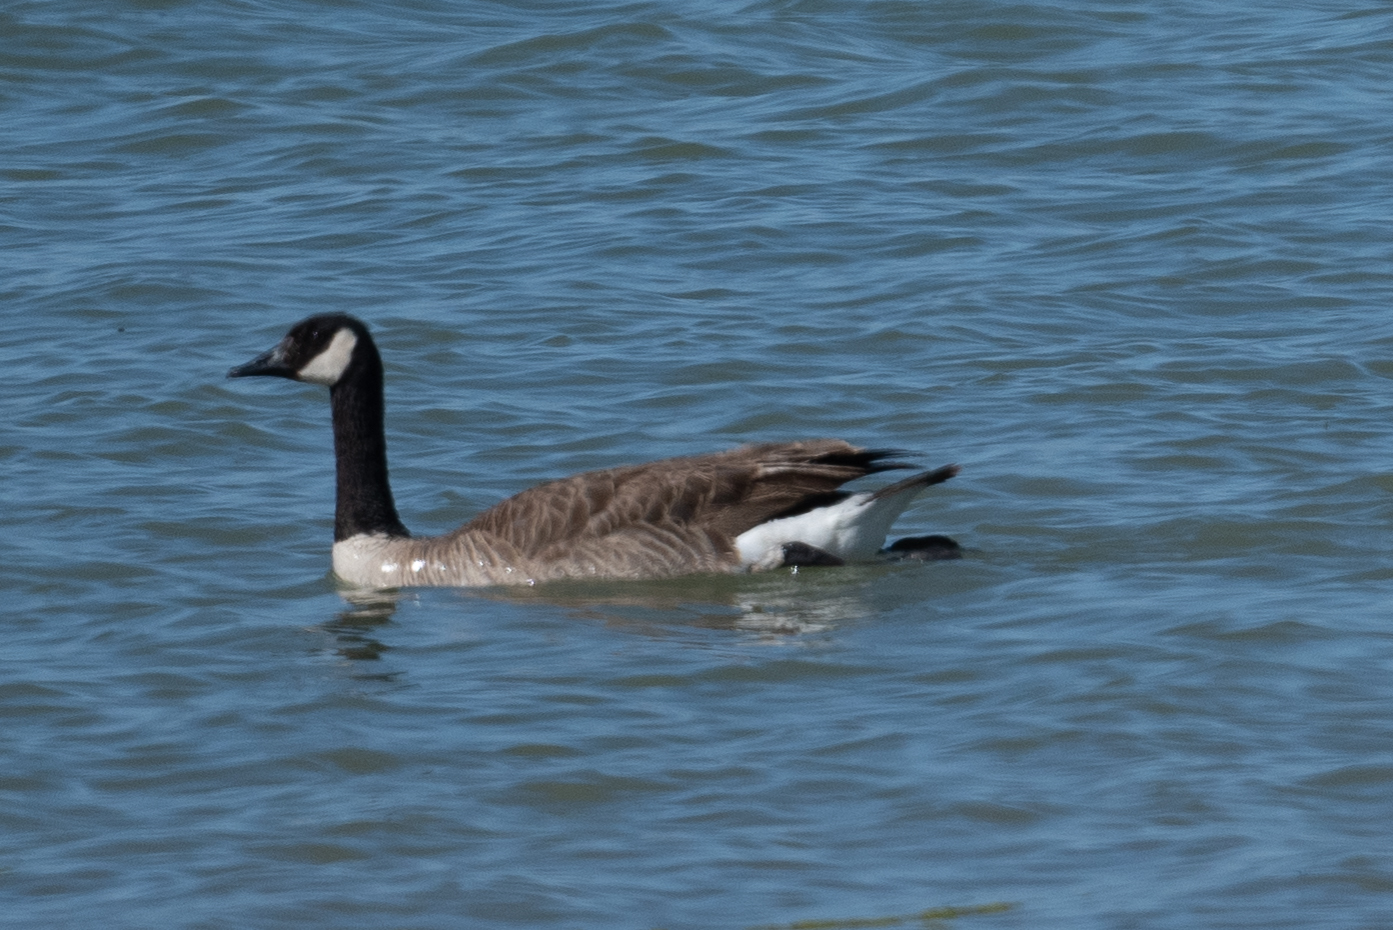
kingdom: Animalia
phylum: Chordata
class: Aves
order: Anseriformes
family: Anatidae
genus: Branta
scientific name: Branta canadensis
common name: Canada goose
